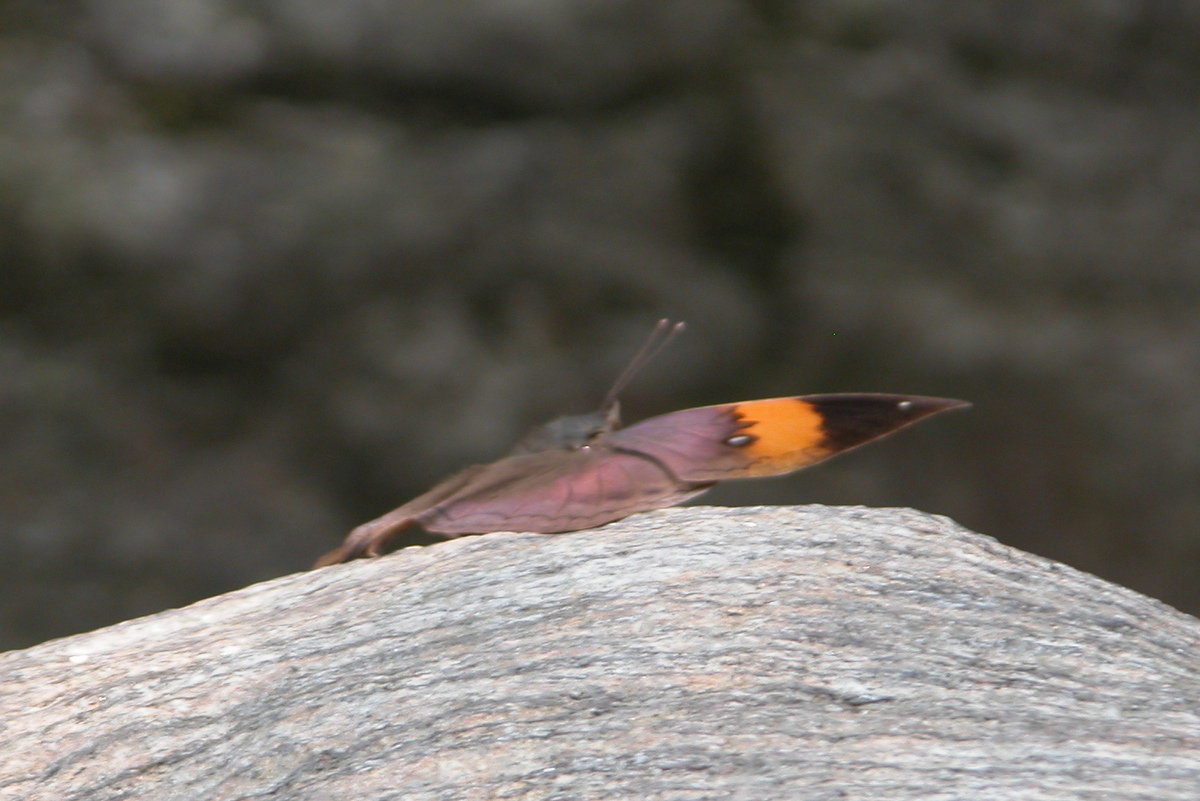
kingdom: Animalia
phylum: Arthropoda
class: Insecta
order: Lepidoptera
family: Nymphalidae
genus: Kallima
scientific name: Kallima inachus
